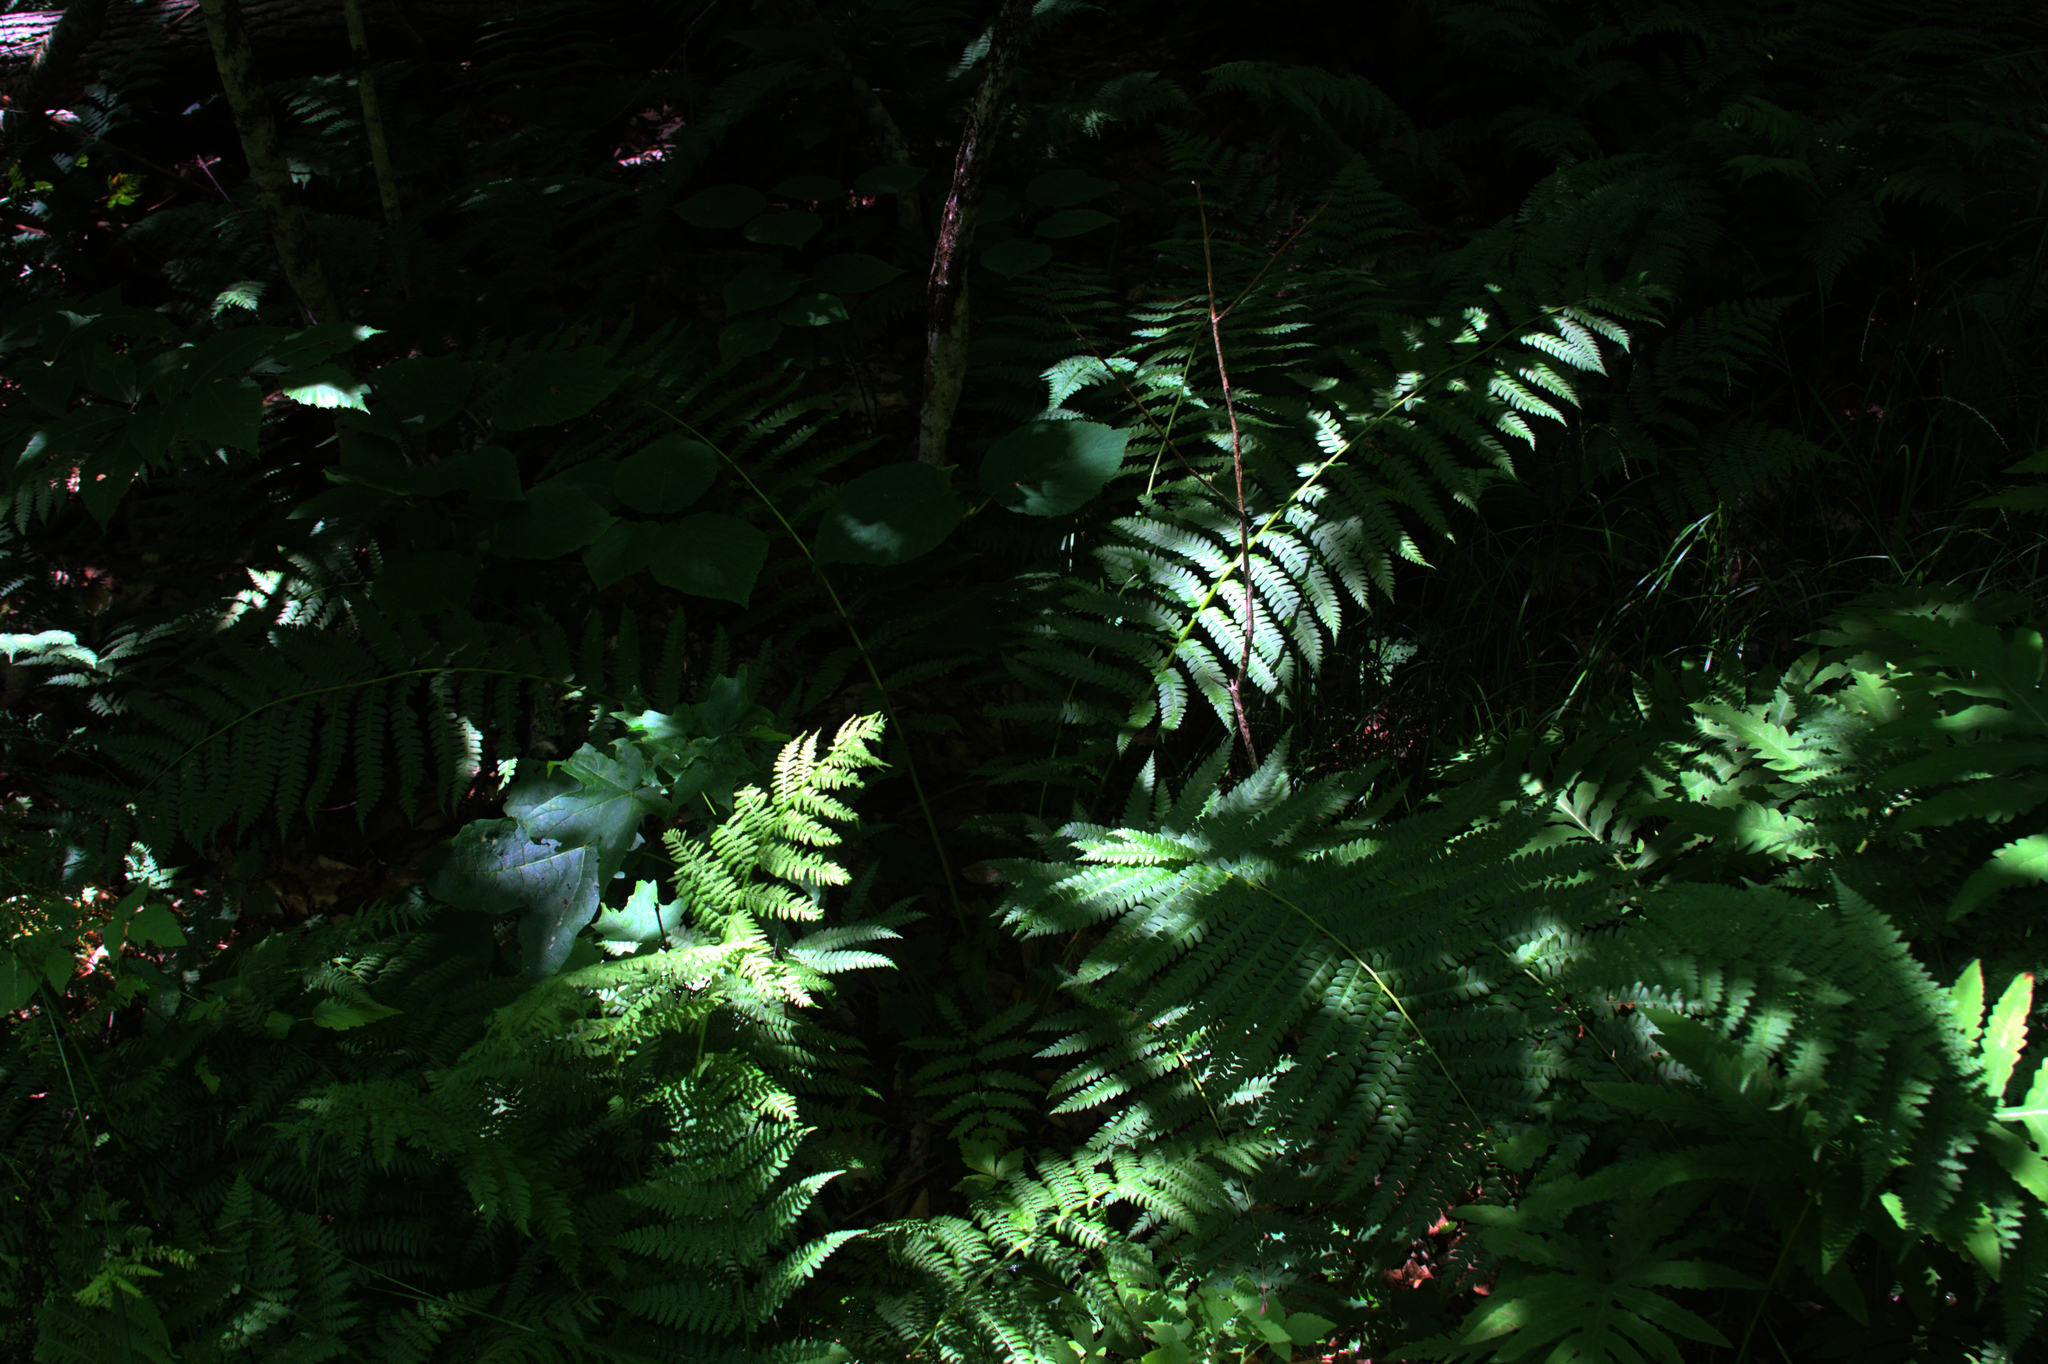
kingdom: Plantae
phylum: Tracheophyta
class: Polypodiopsida
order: Osmundales
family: Osmundaceae
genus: Osmundastrum
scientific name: Osmundastrum cinnamomeum
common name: Cinnamon fern
